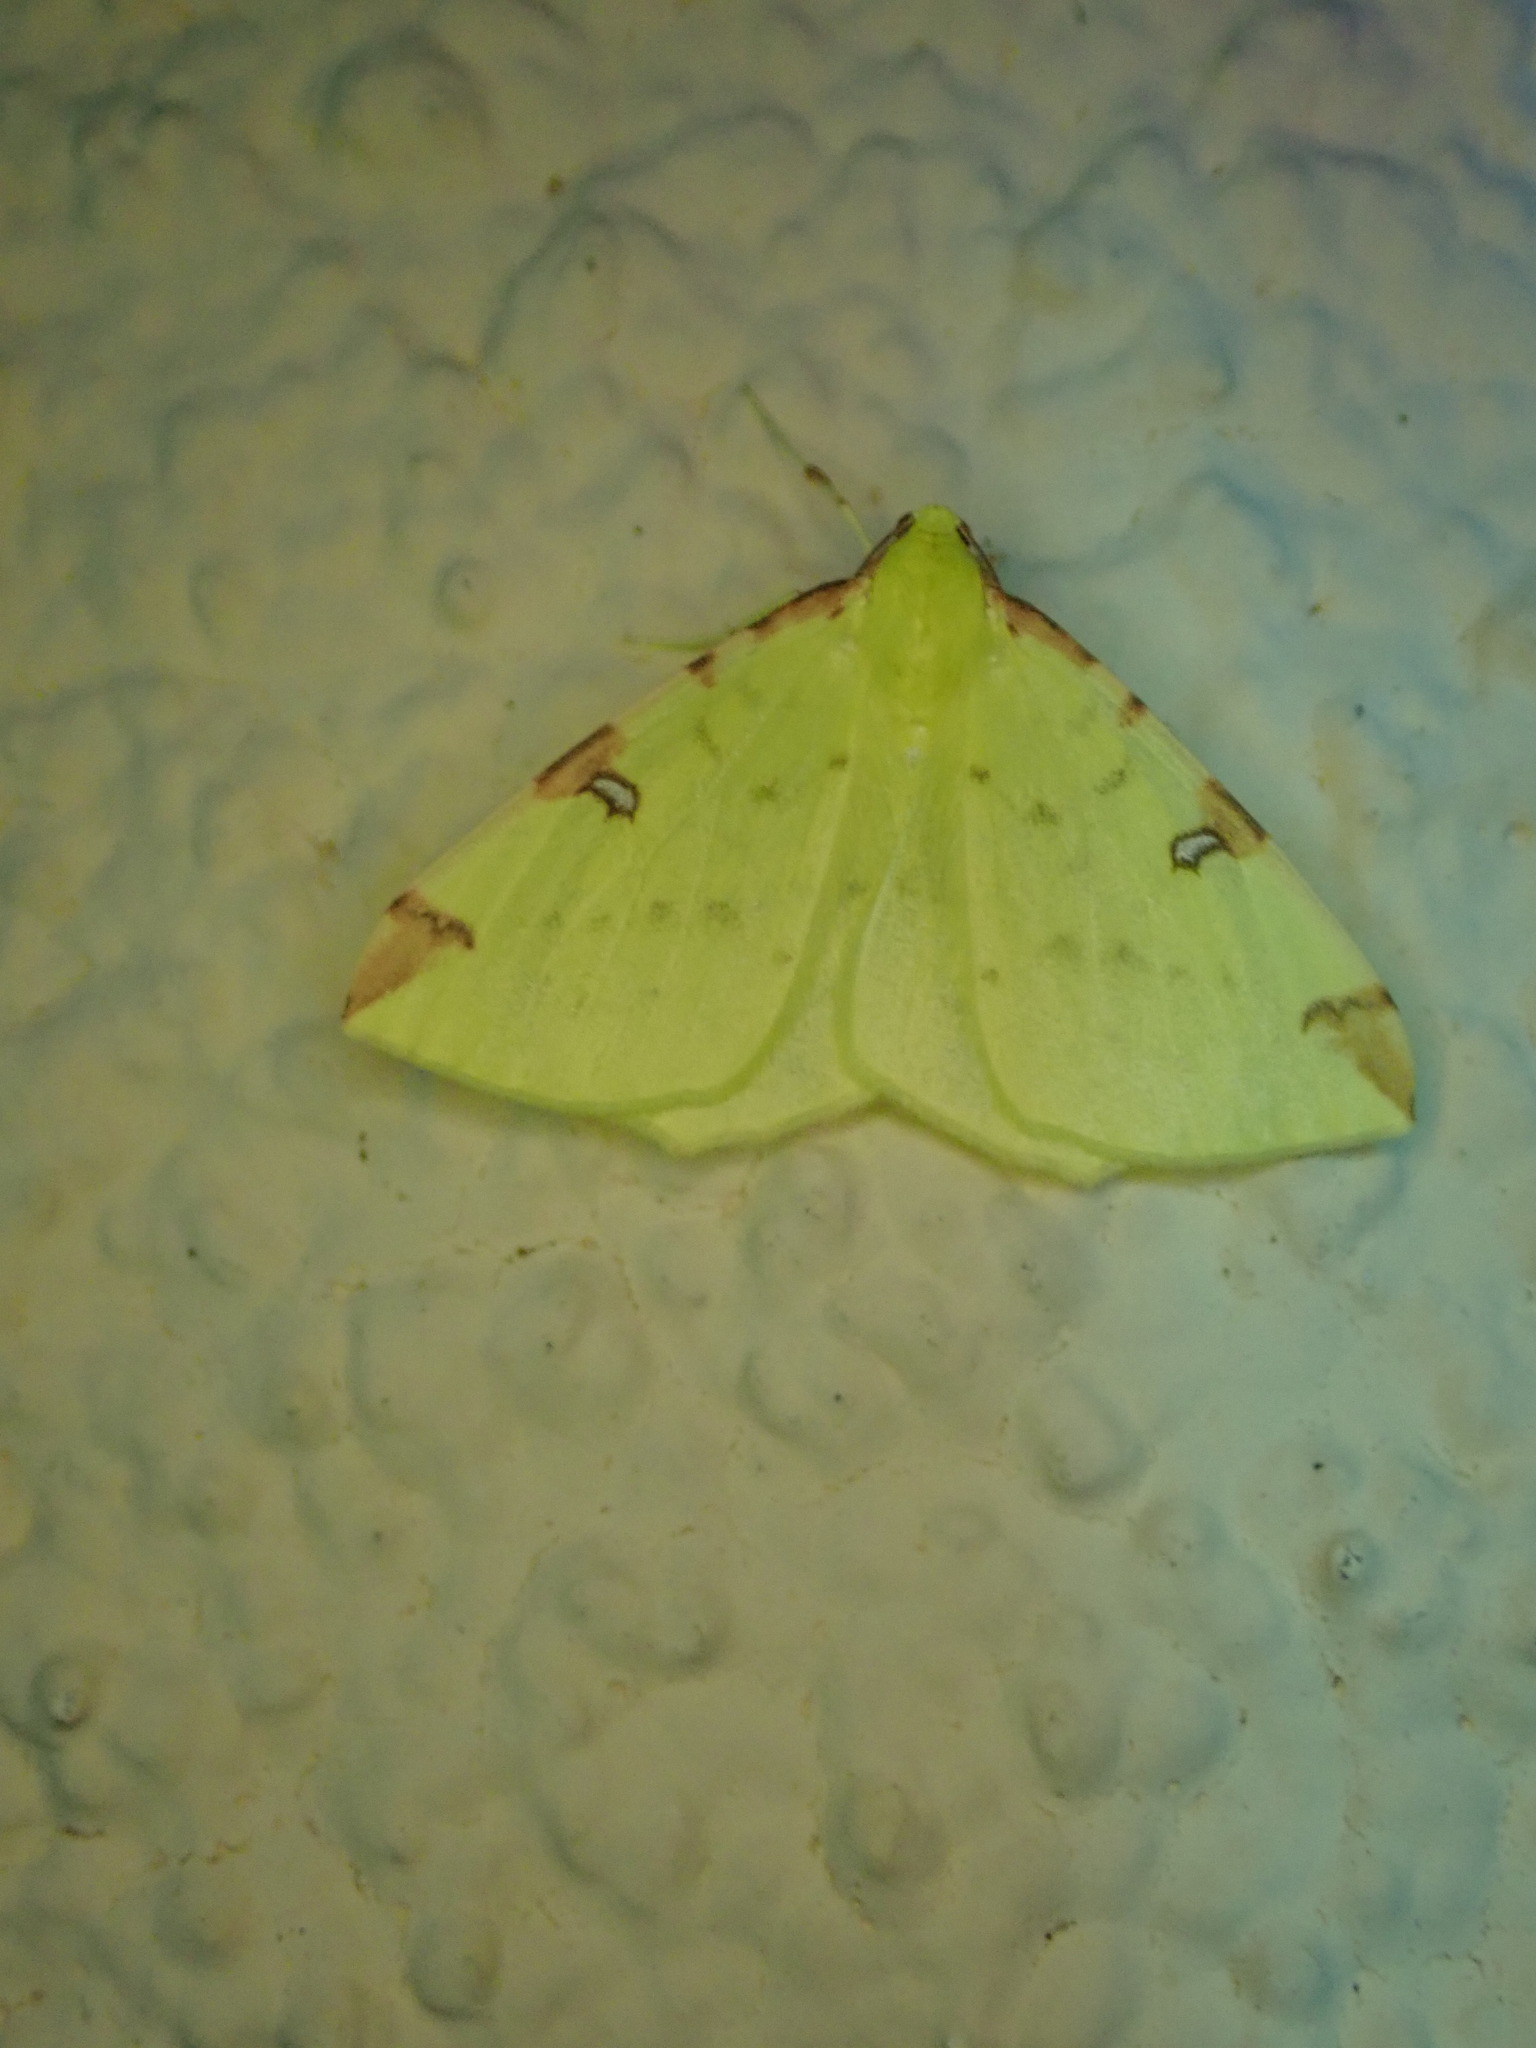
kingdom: Animalia
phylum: Arthropoda
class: Insecta
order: Lepidoptera
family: Geometridae
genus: Opisthograptis
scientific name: Opisthograptis luteolata
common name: Brimstone moth
